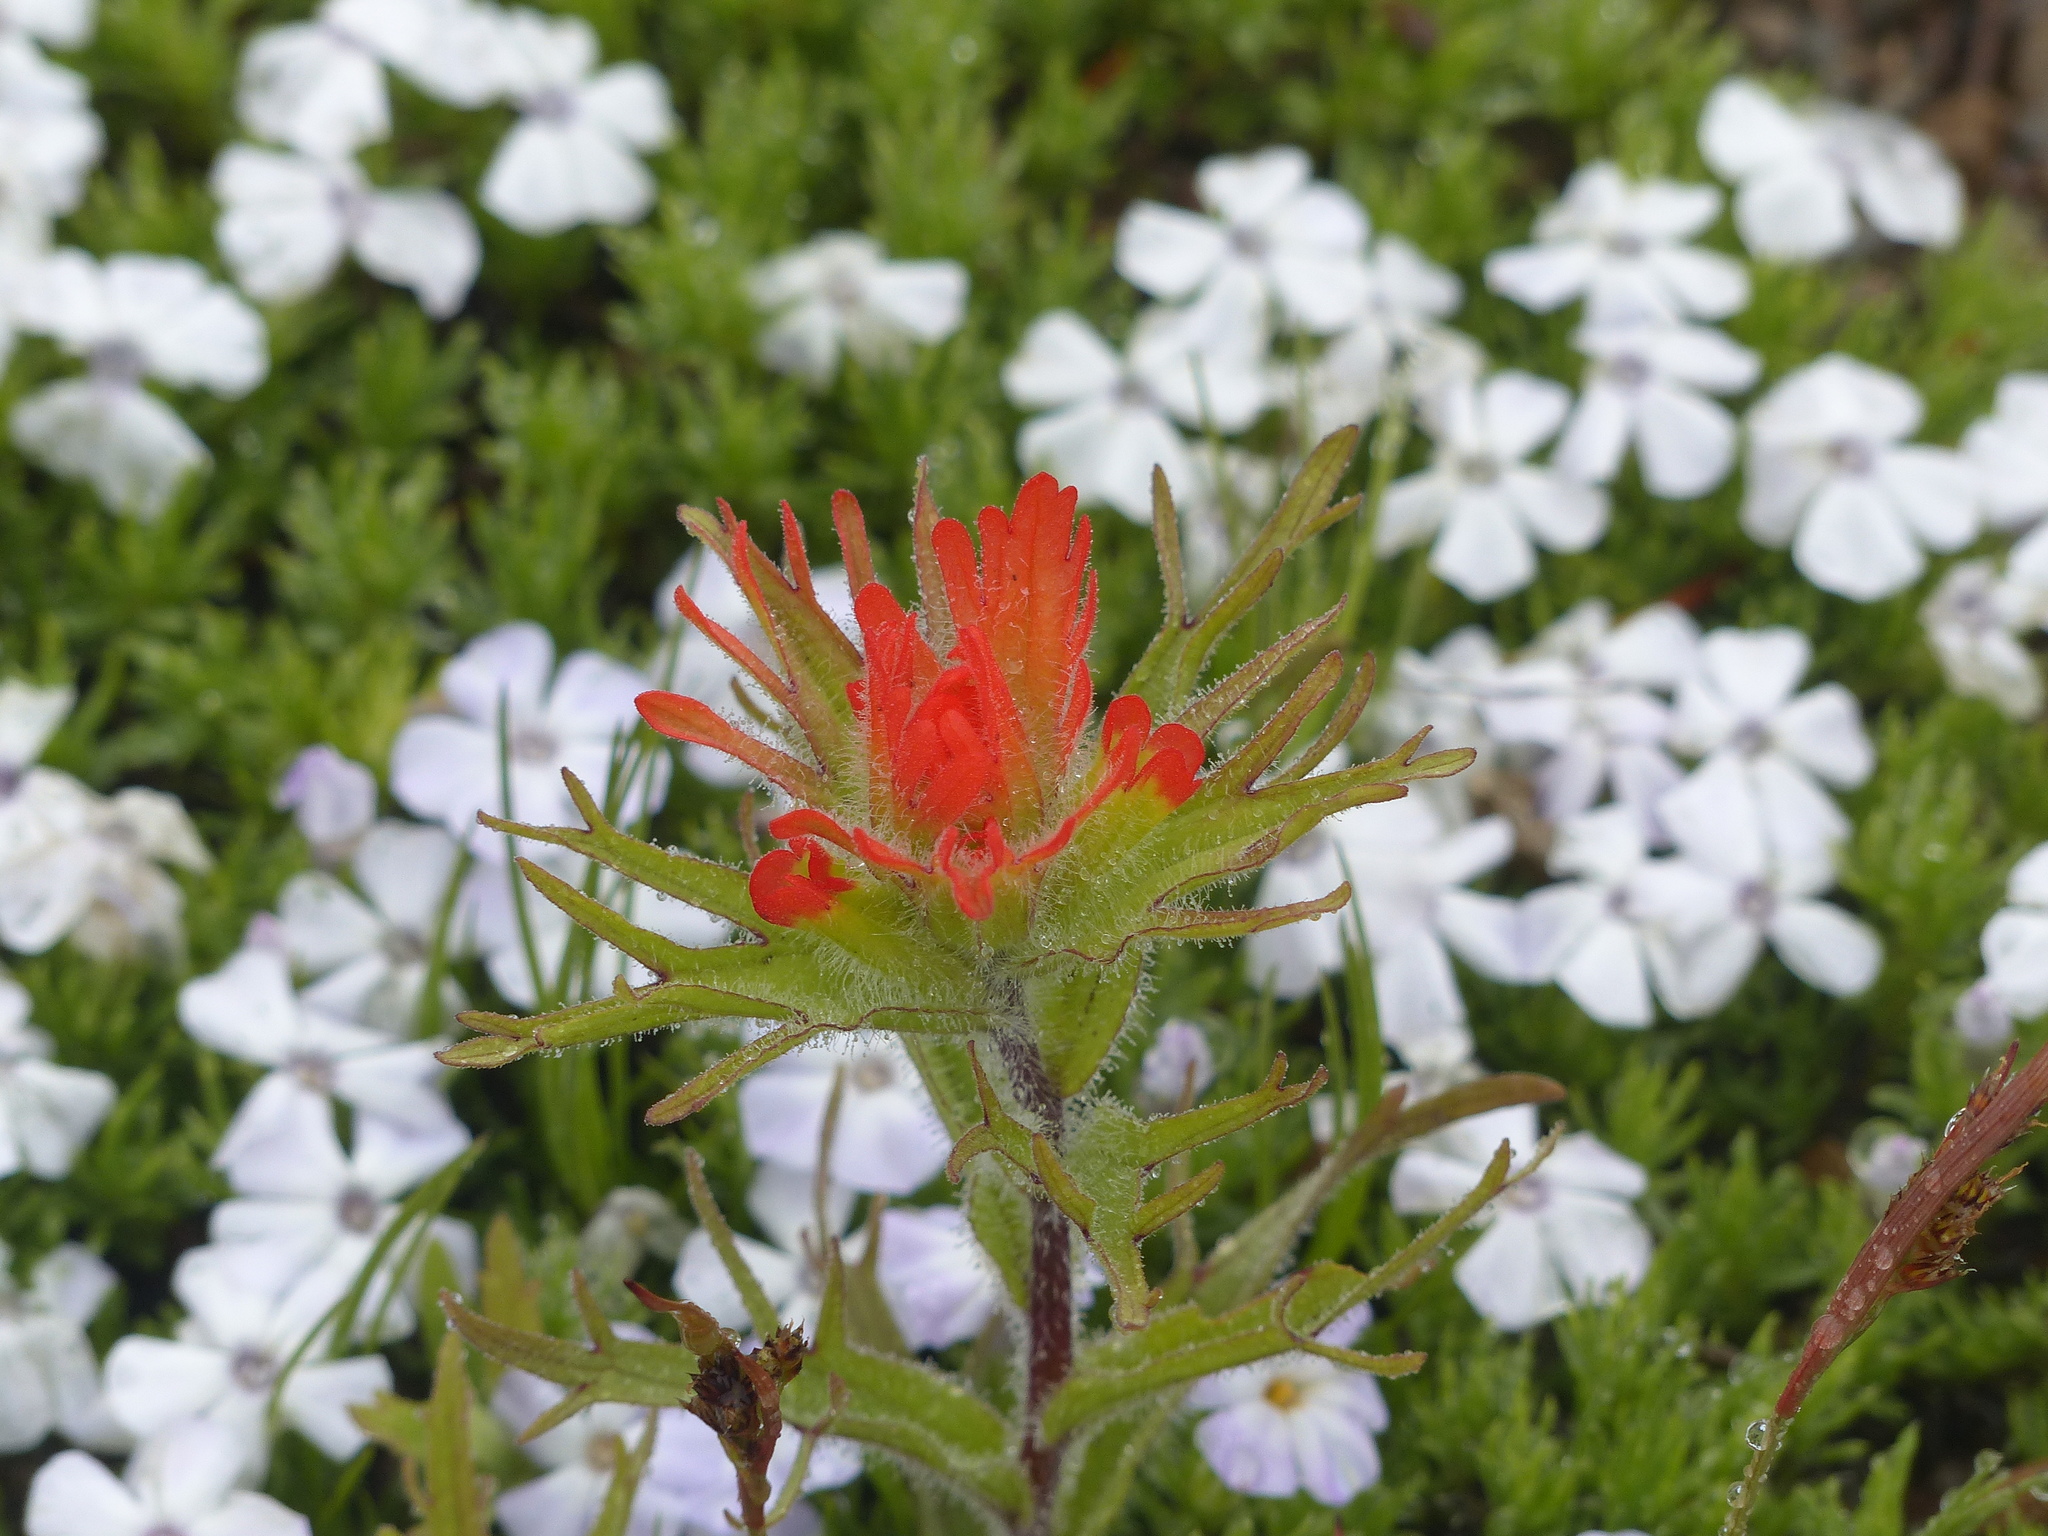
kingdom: Plantae
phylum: Tracheophyta
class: Magnoliopsida
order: Lamiales
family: Orobanchaceae
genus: Castilleja
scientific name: Castilleja hispida
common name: Bristly paintbrush
